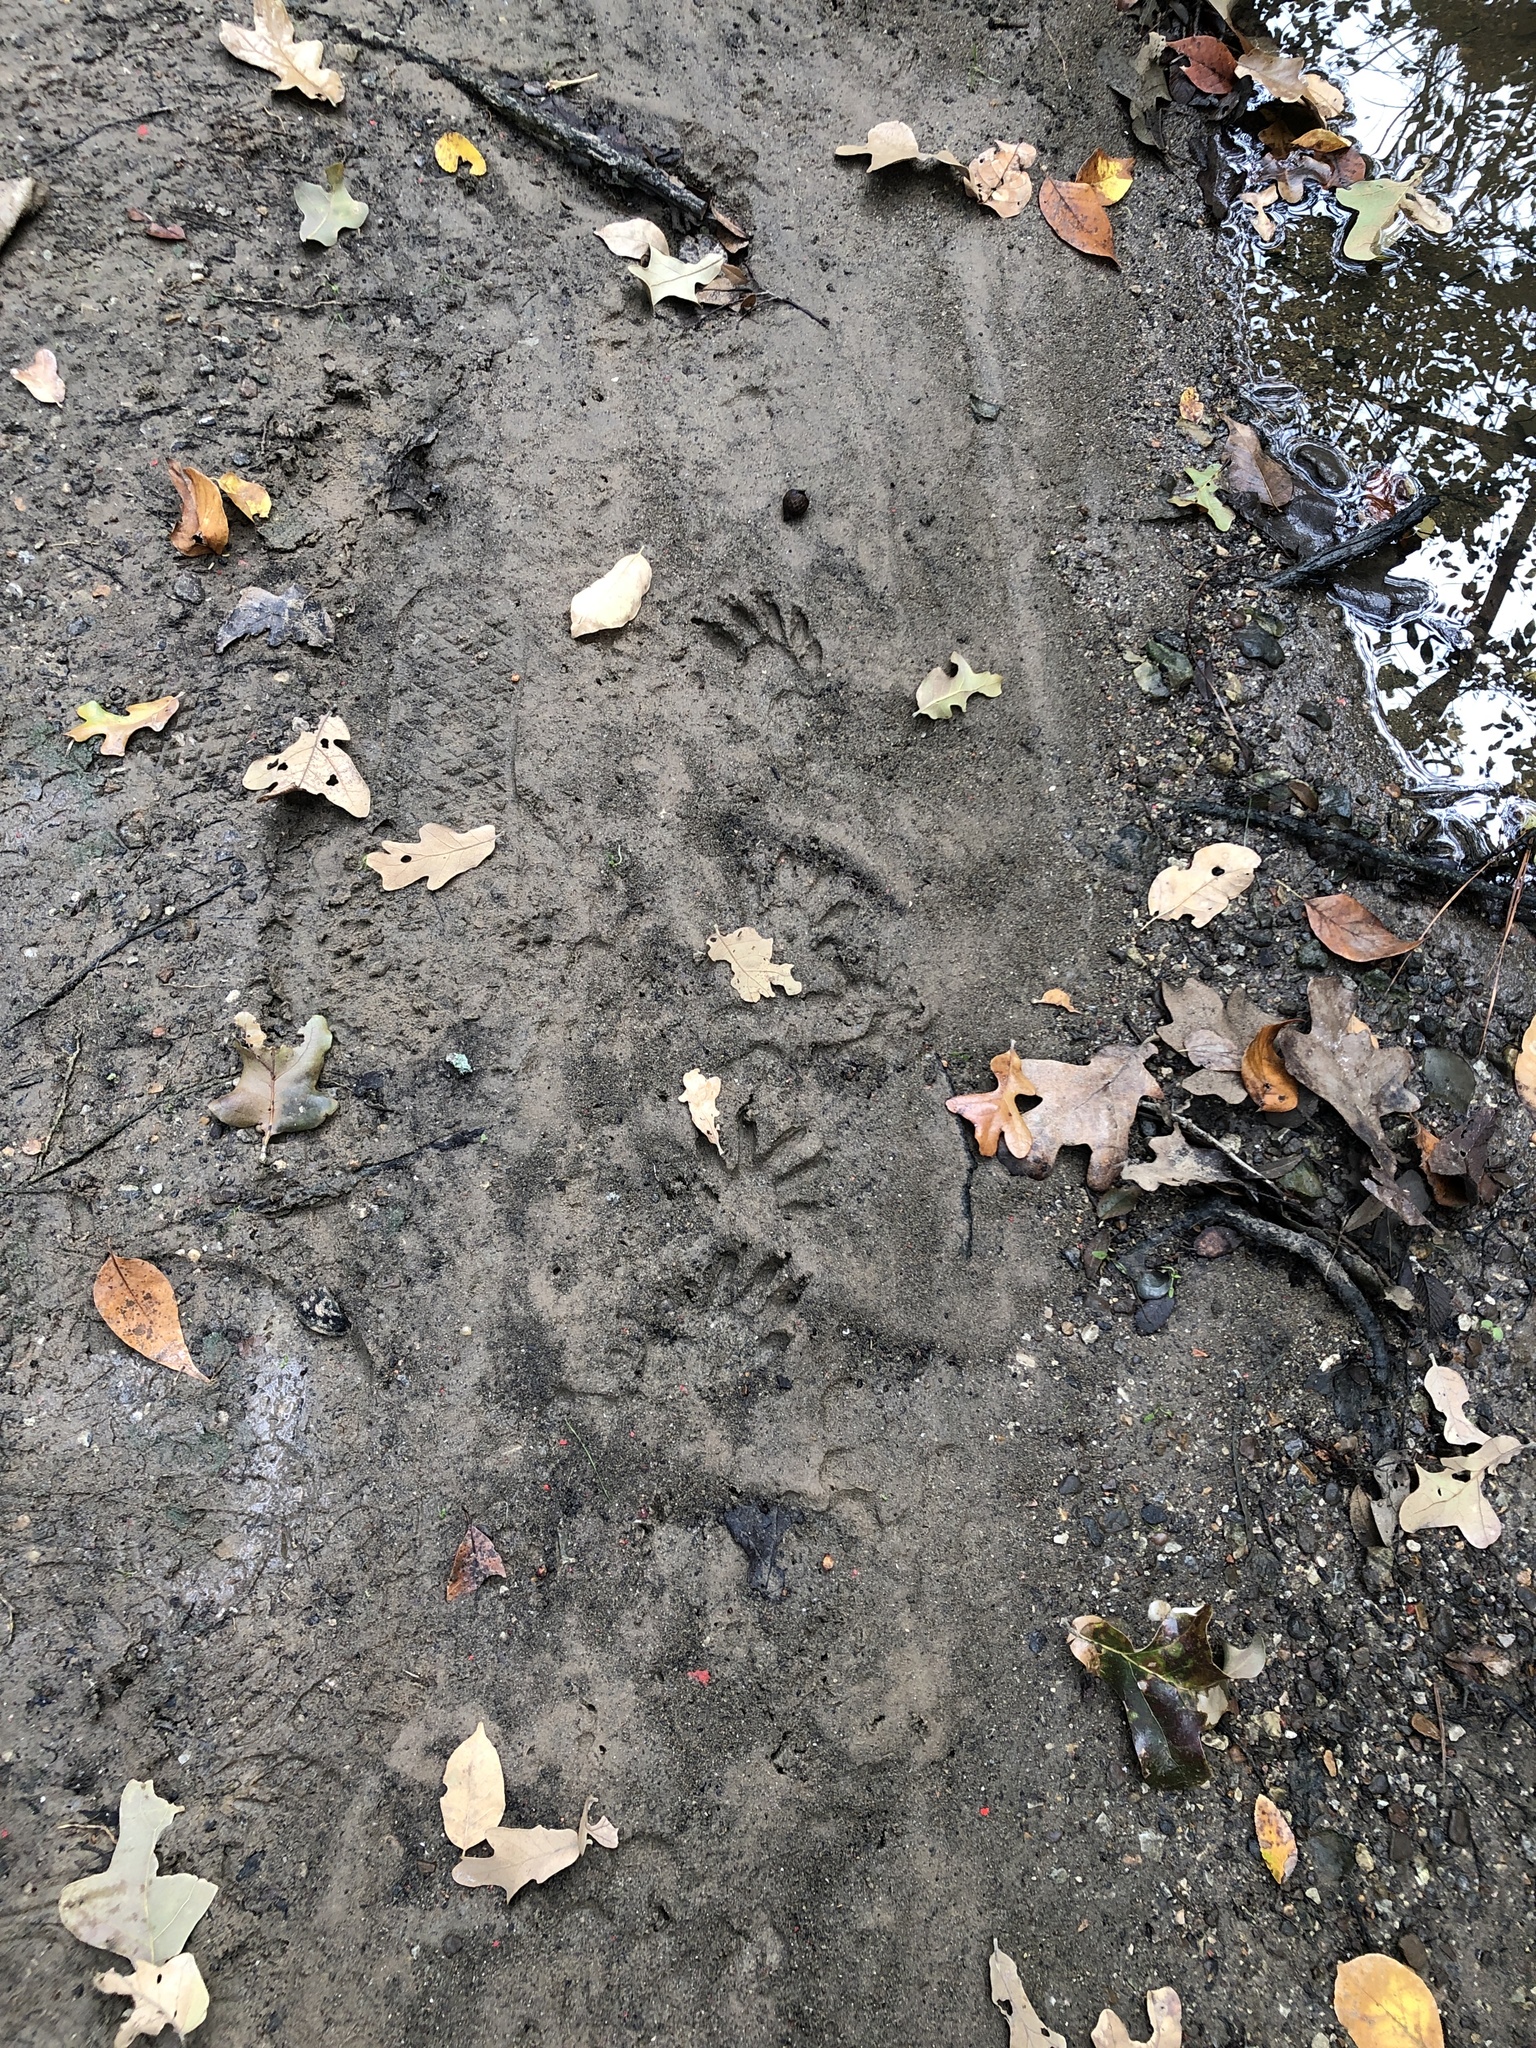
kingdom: Animalia
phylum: Chordata
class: Mammalia
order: Carnivora
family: Procyonidae
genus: Procyon
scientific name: Procyon lotor
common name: Raccoon
